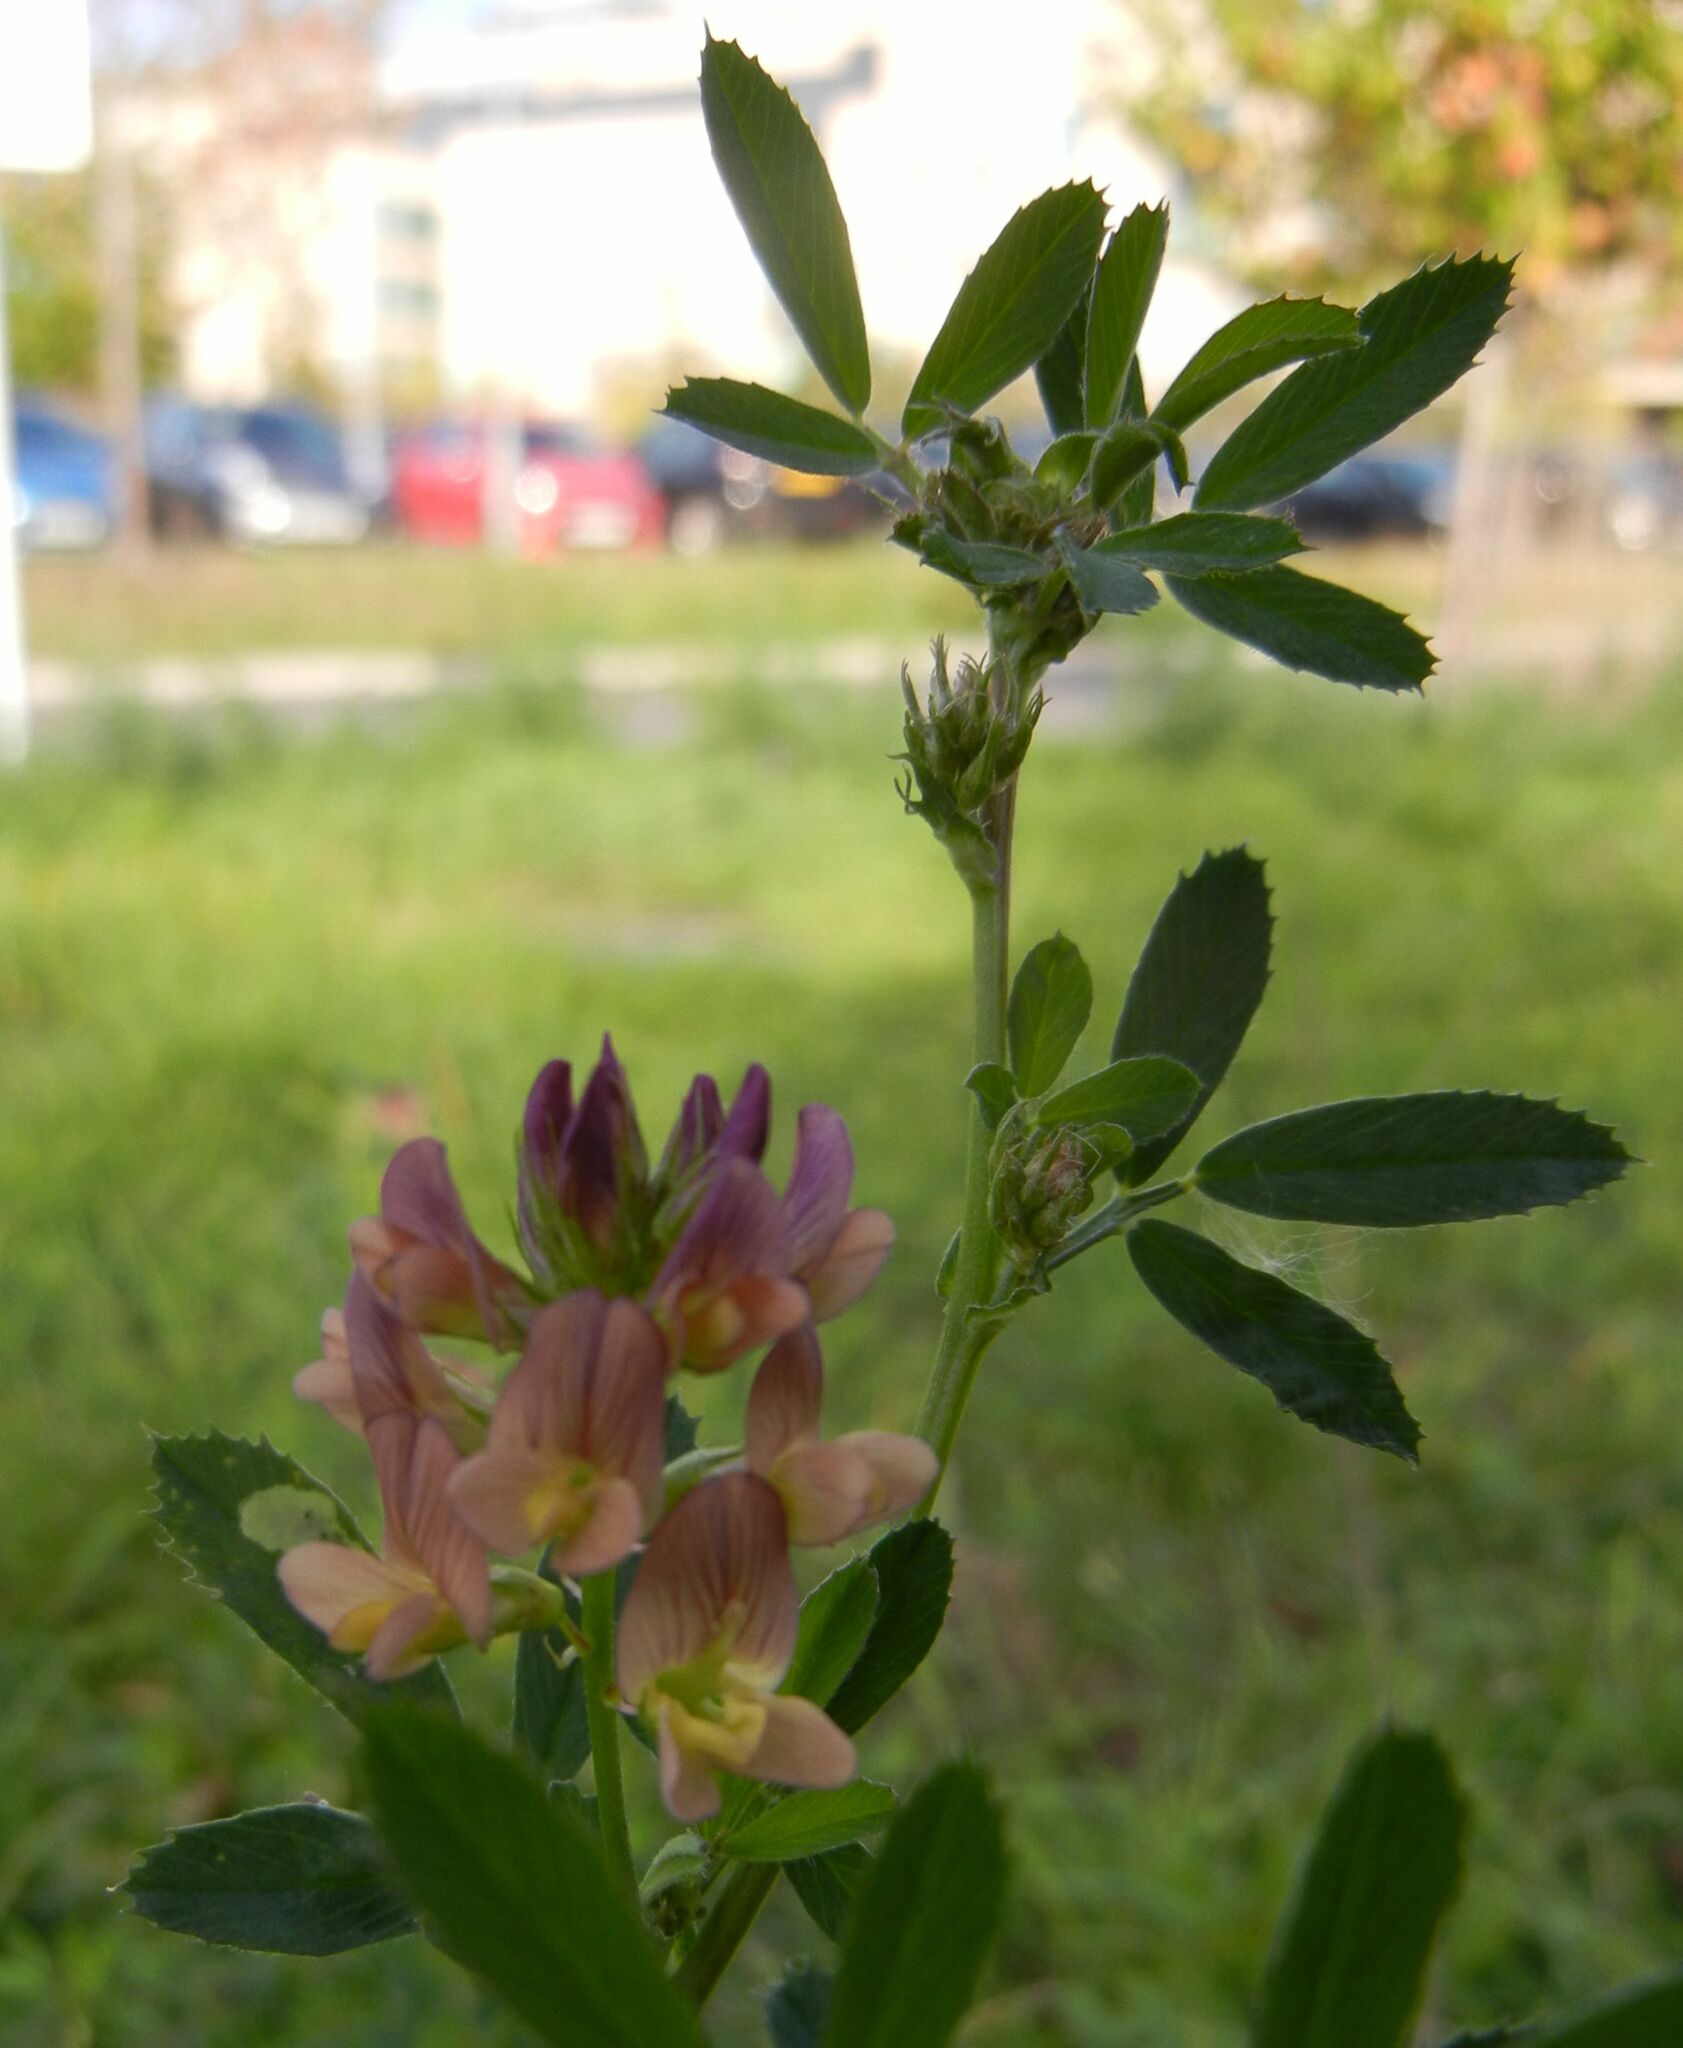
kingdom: Plantae
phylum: Tracheophyta
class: Magnoliopsida
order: Fabales
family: Fabaceae
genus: Medicago
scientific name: Medicago sativa
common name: Alfalfa
